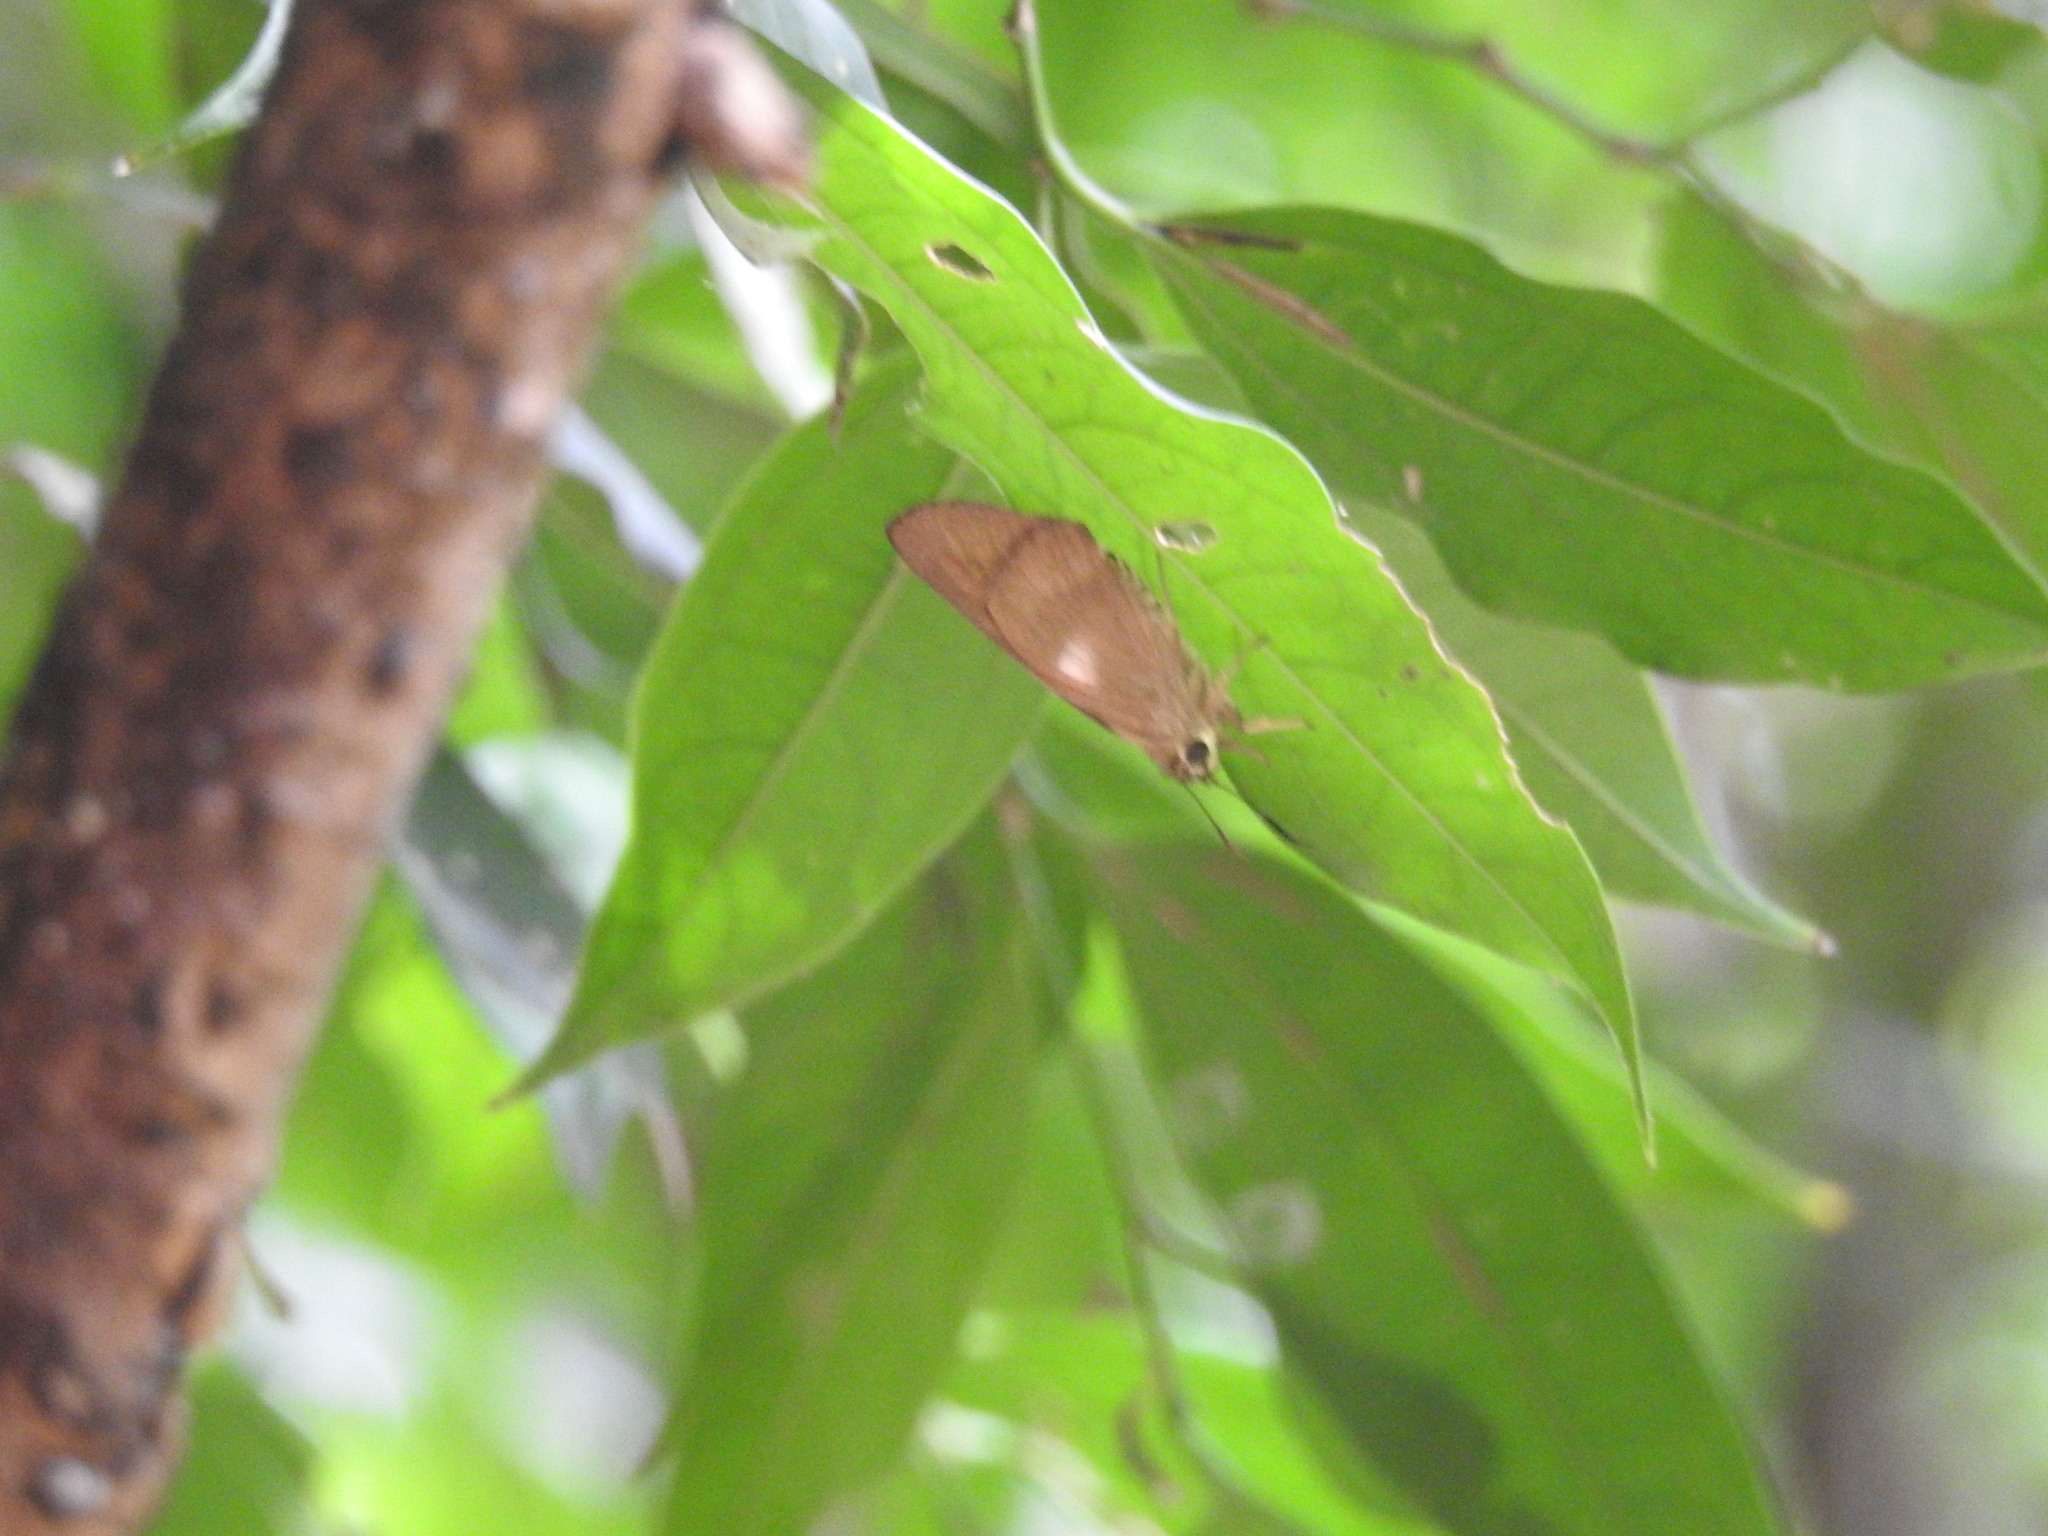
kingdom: Animalia
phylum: Arthropoda
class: Insecta
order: Lepidoptera
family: Hesperiidae
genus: Badamia
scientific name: Badamia exclamationis
